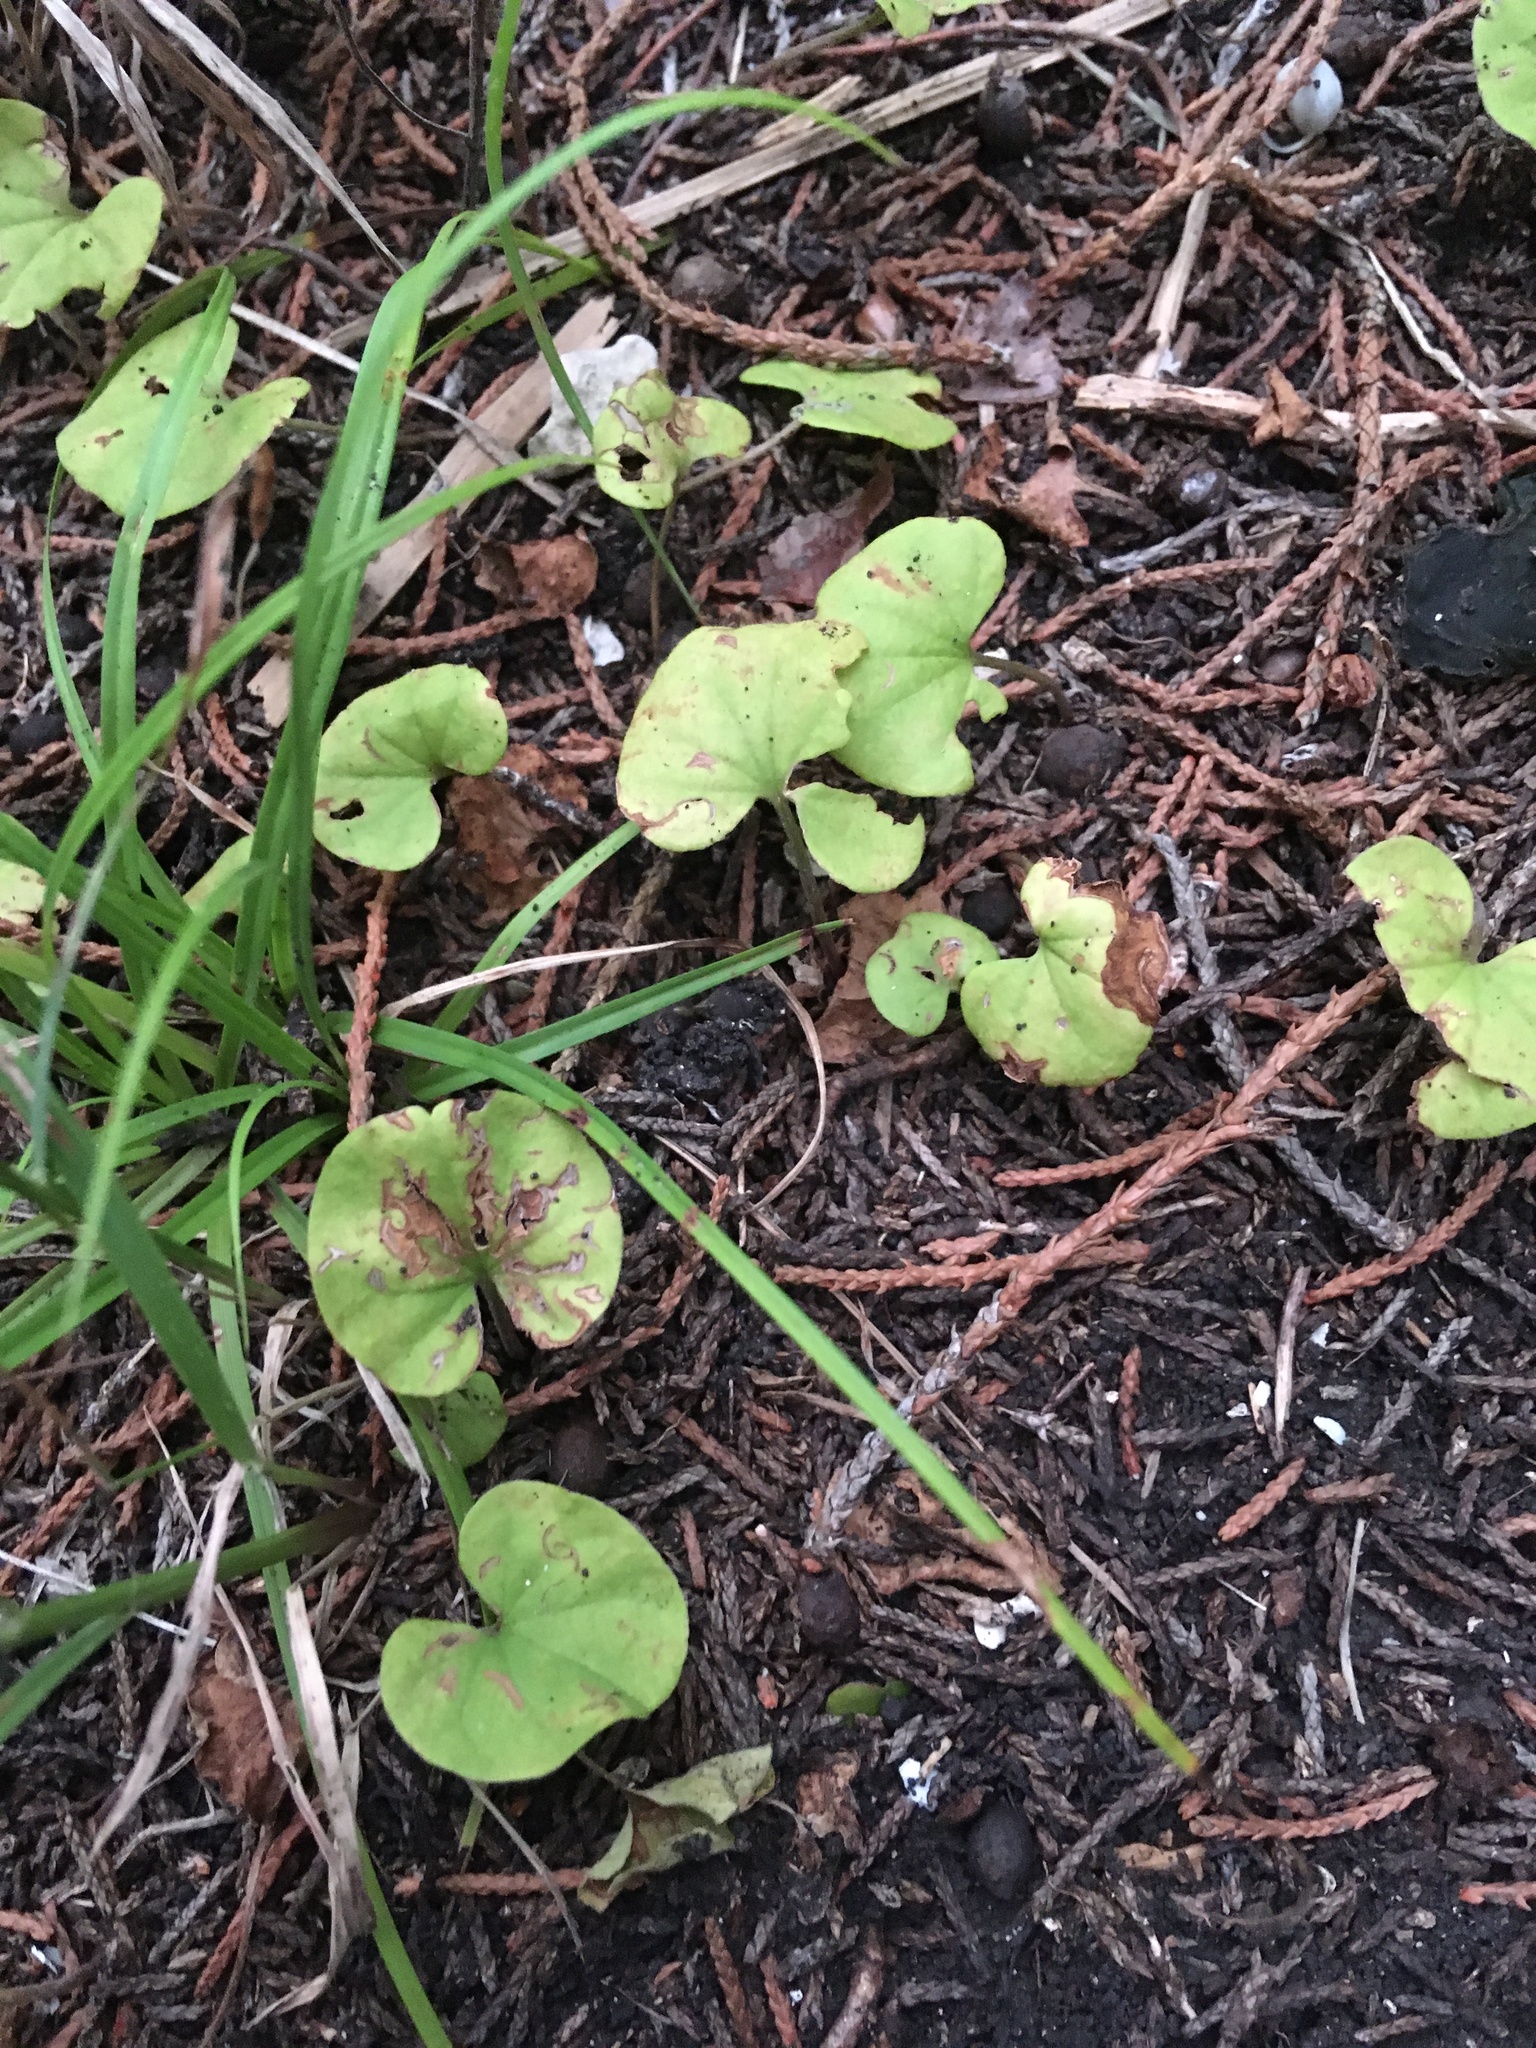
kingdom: Plantae
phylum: Tracheophyta
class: Magnoliopsida
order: Solanales
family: Convolvulaceae
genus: Dichondra
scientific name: Dichondra carolinensis
